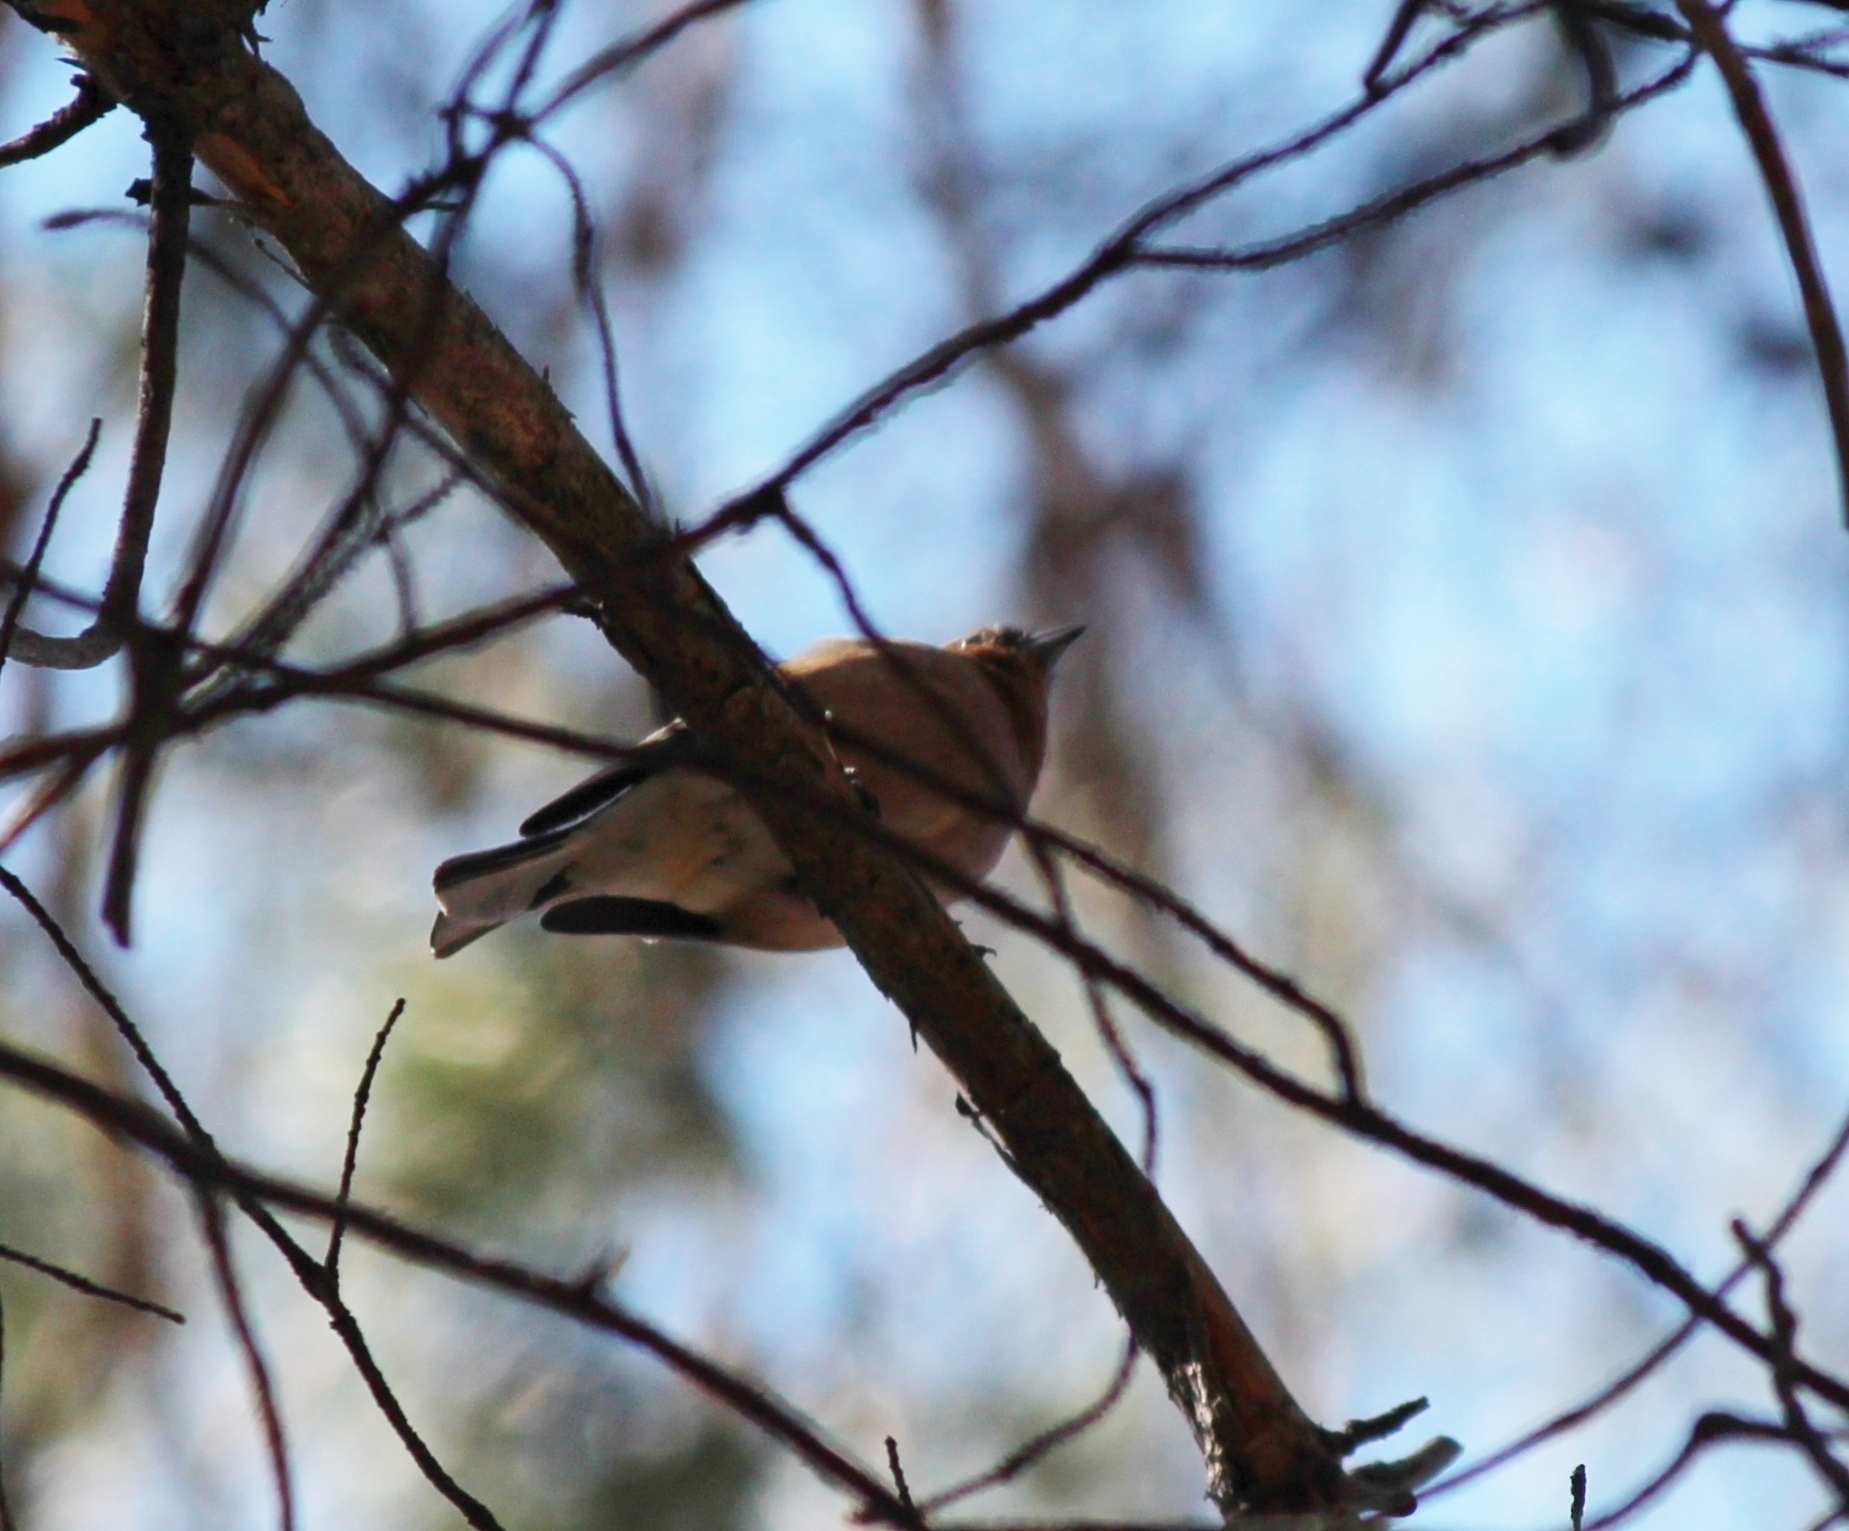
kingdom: Animalia
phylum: Chordata
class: Aves
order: Passeriformes
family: Fringillidae
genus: Fringilla
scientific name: Fringilla coelebs
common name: Common chaffinch
